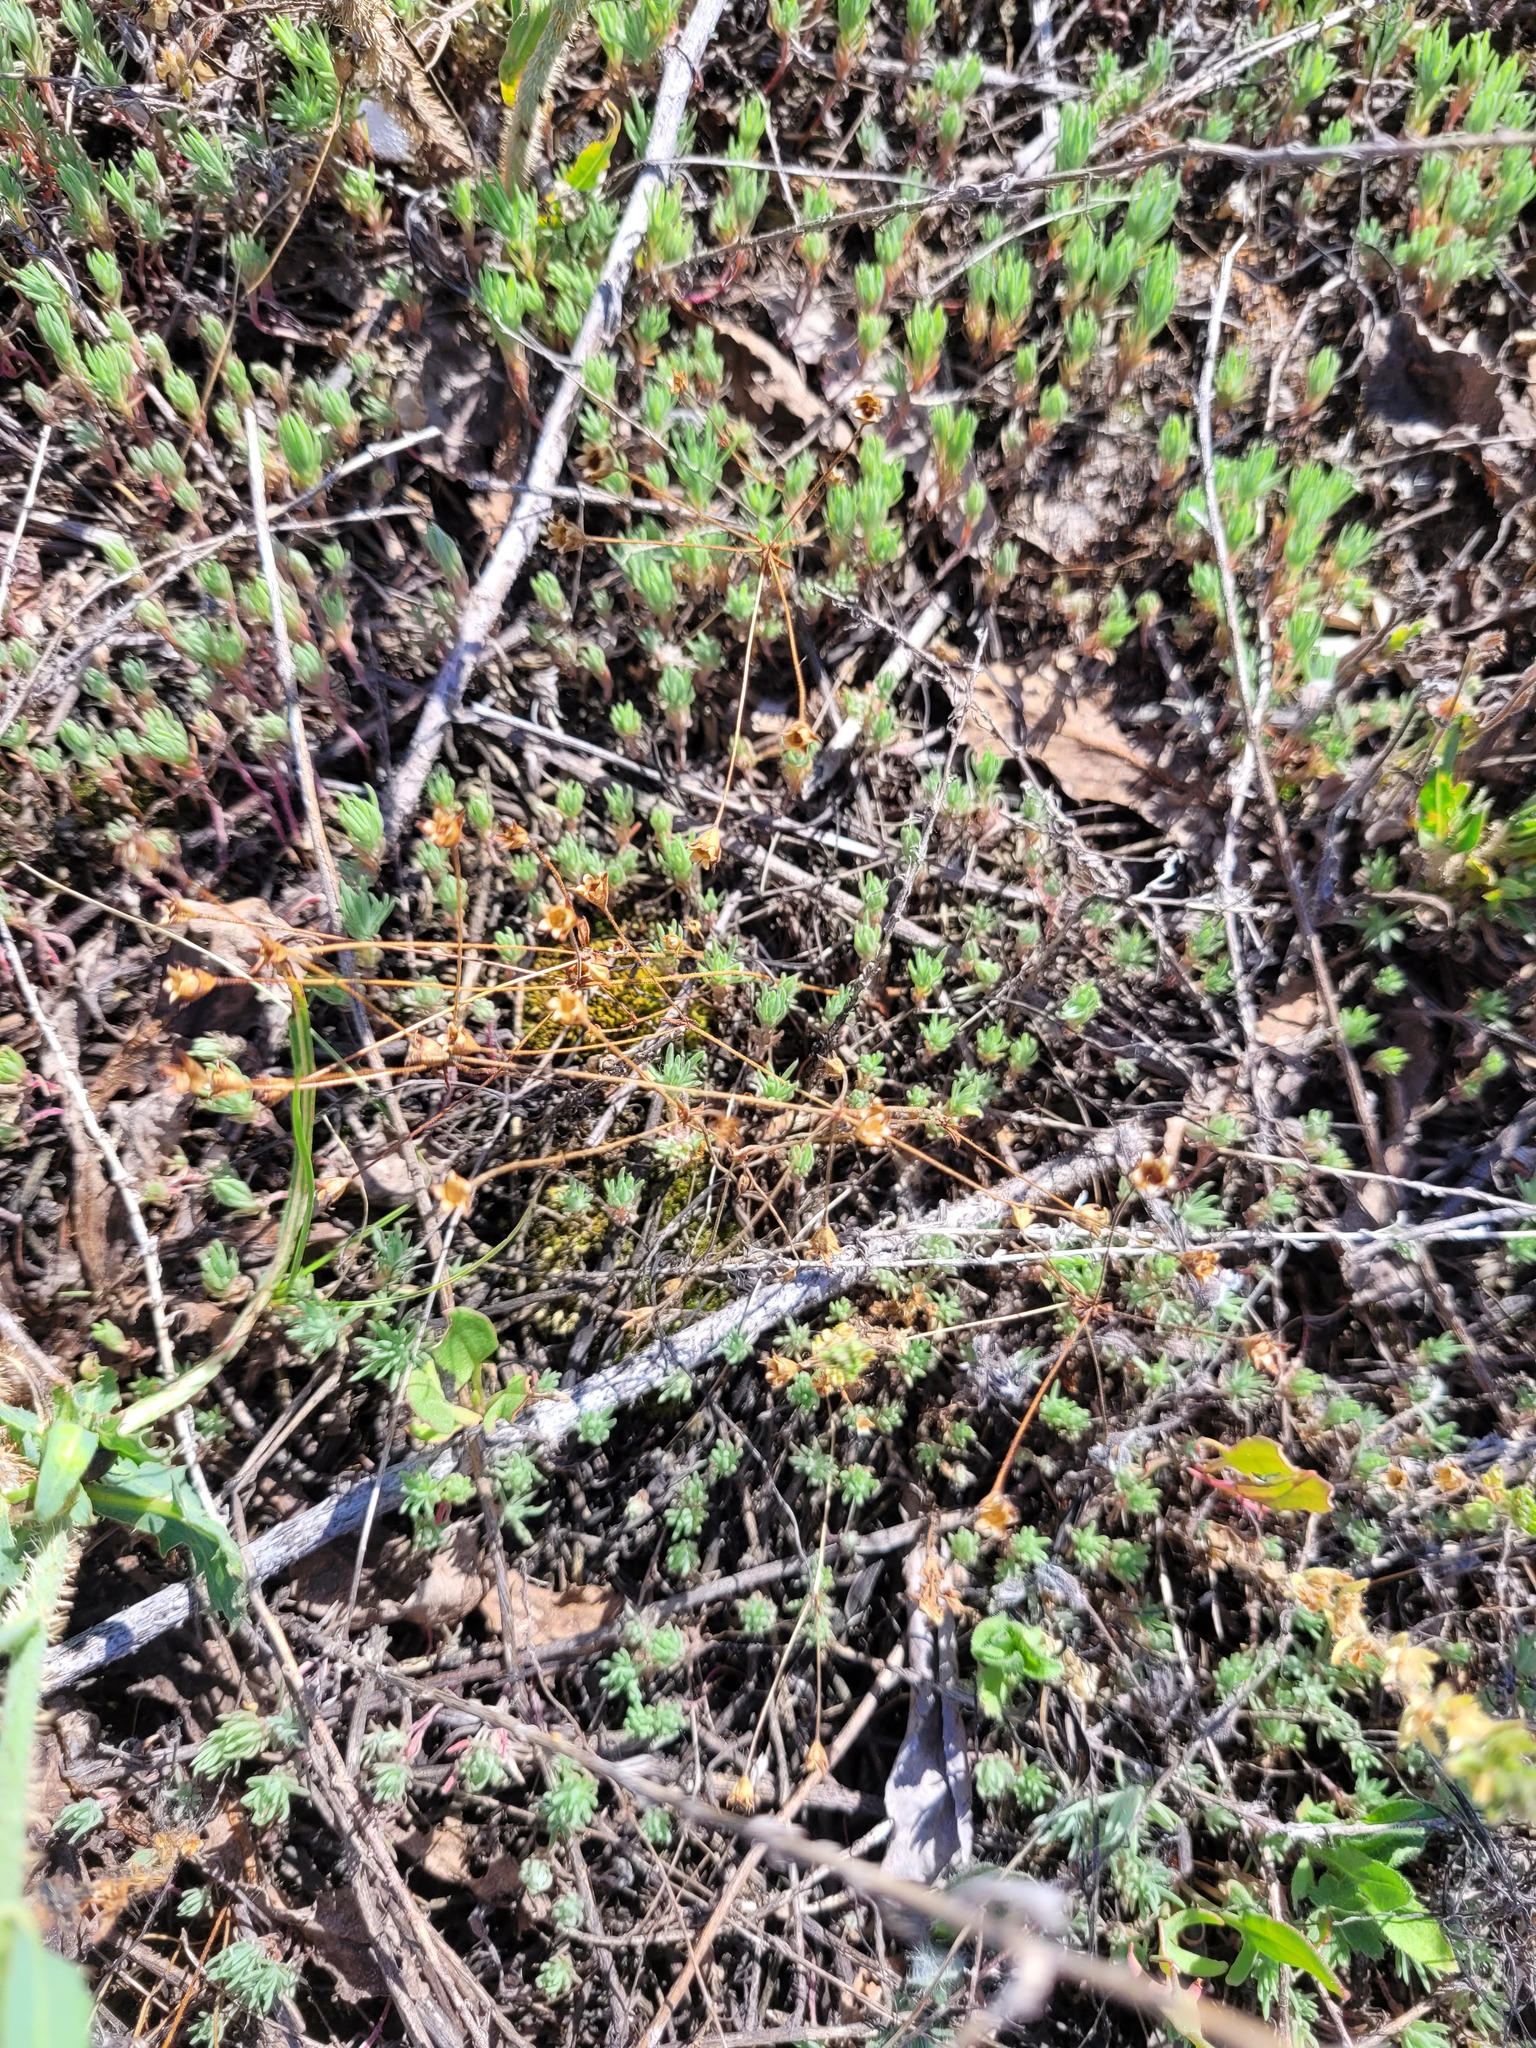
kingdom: Plantae
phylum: Tracheophyta
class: Magnoliopsida
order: Ericales
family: Primulaceae
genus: Androsace
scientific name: Androsace elongata
